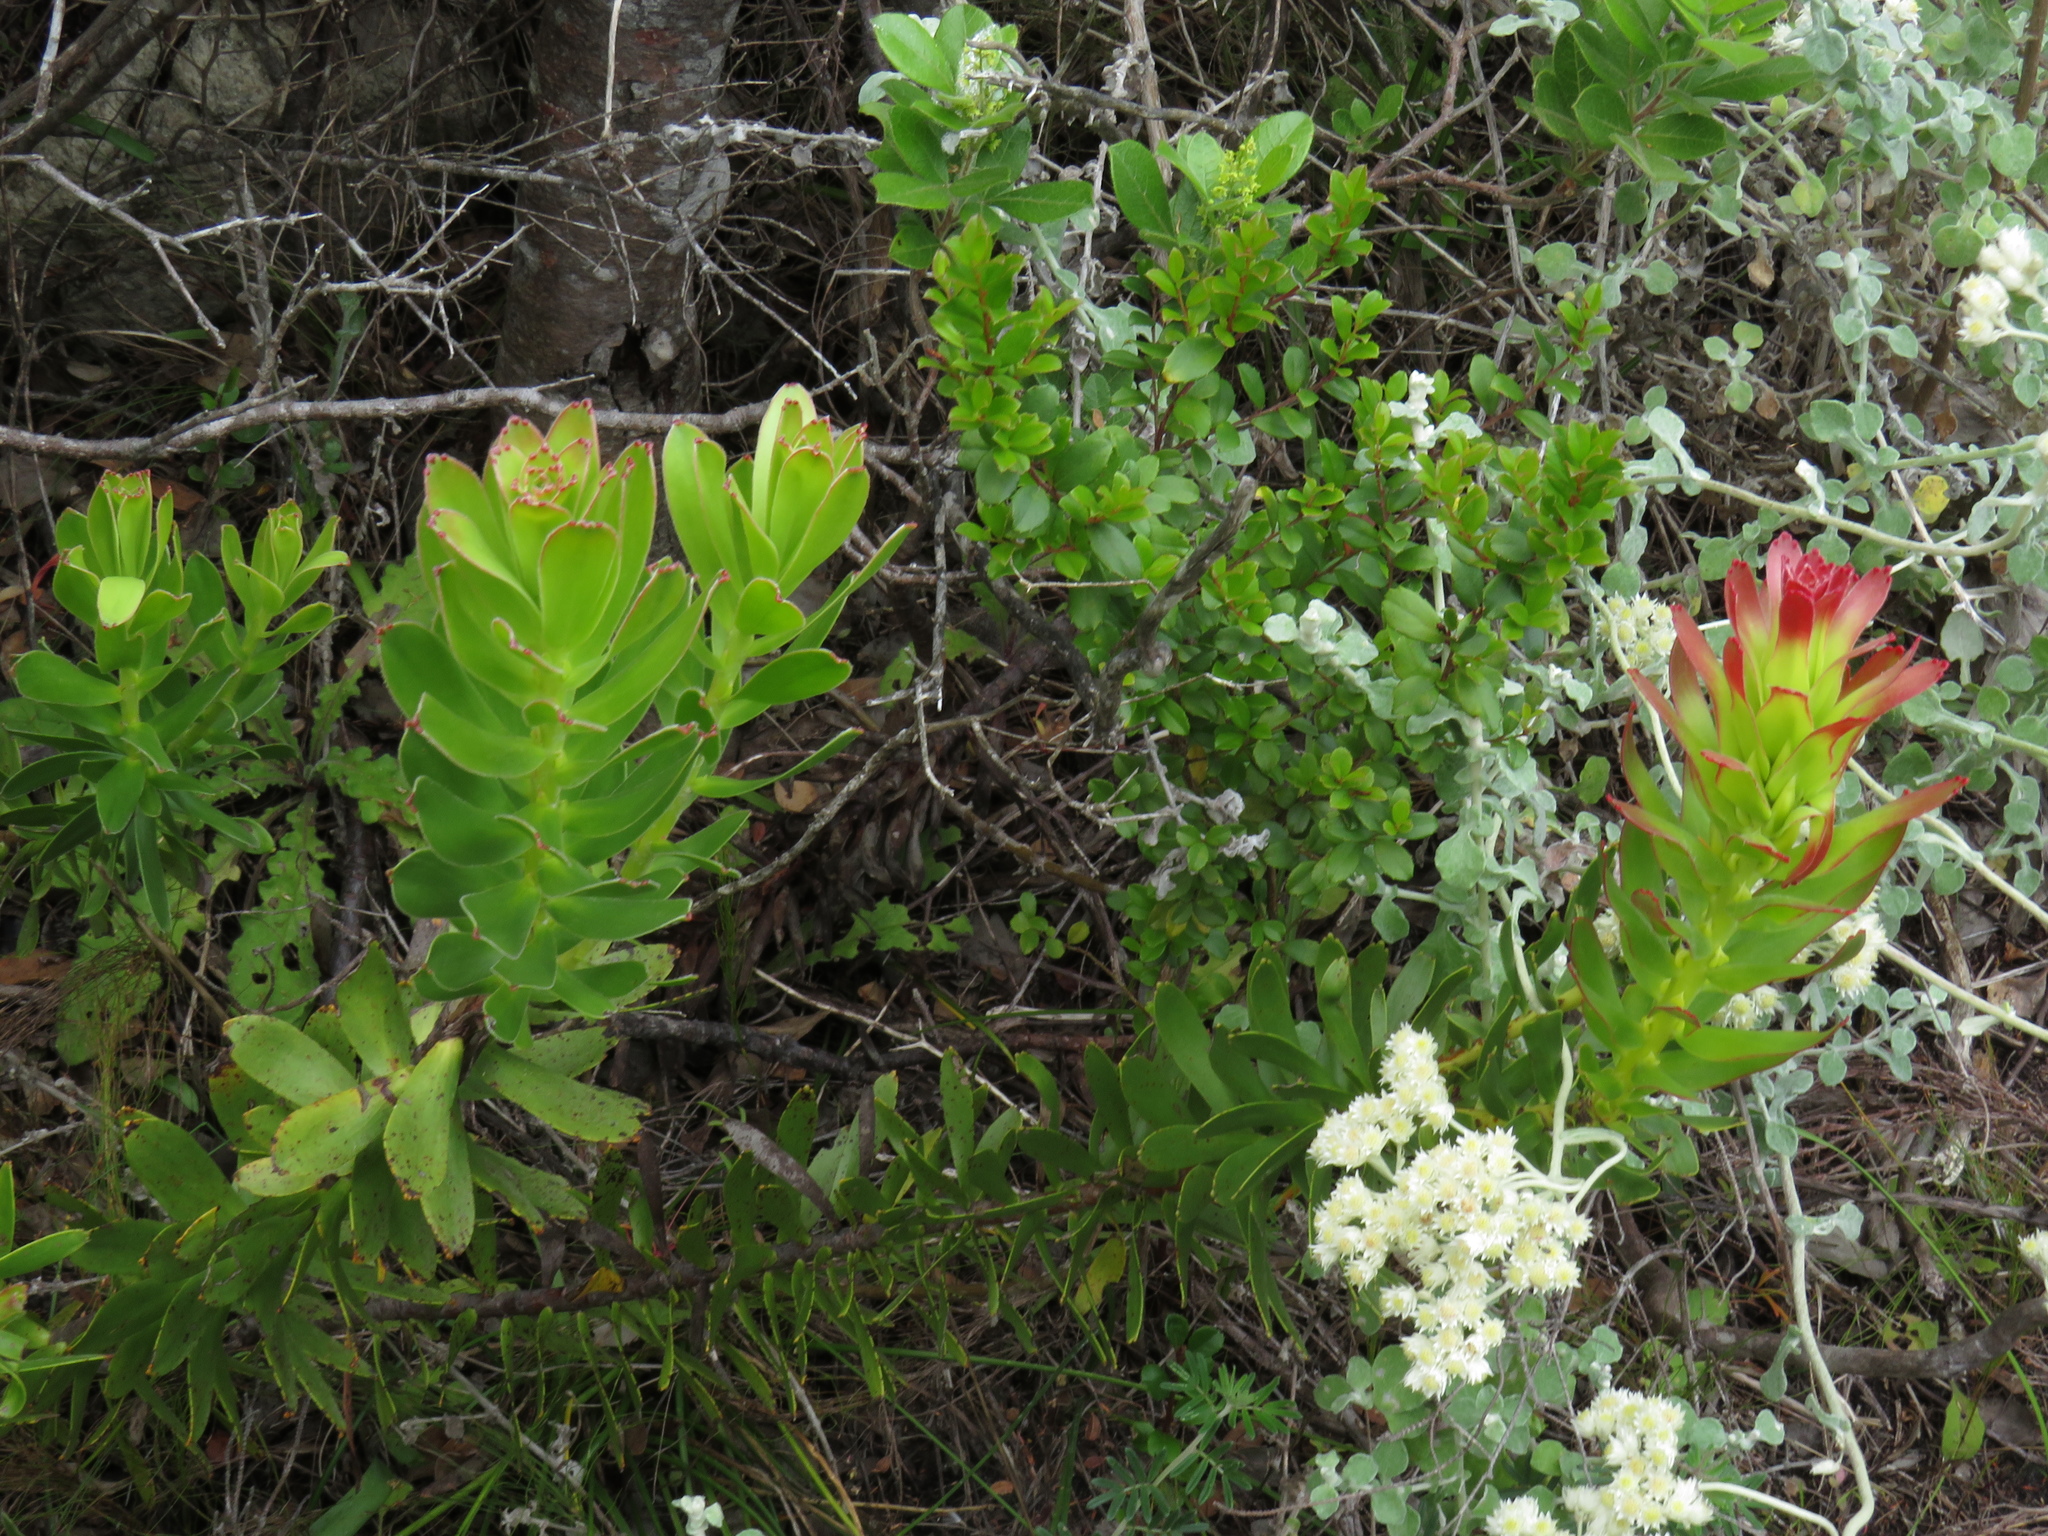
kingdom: Plantae
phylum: Tracheophyta
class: Magnoliopsida
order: Proteales
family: Proteaceae
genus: Mimetes
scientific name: Mimetes cucullatus
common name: Common pagoda
